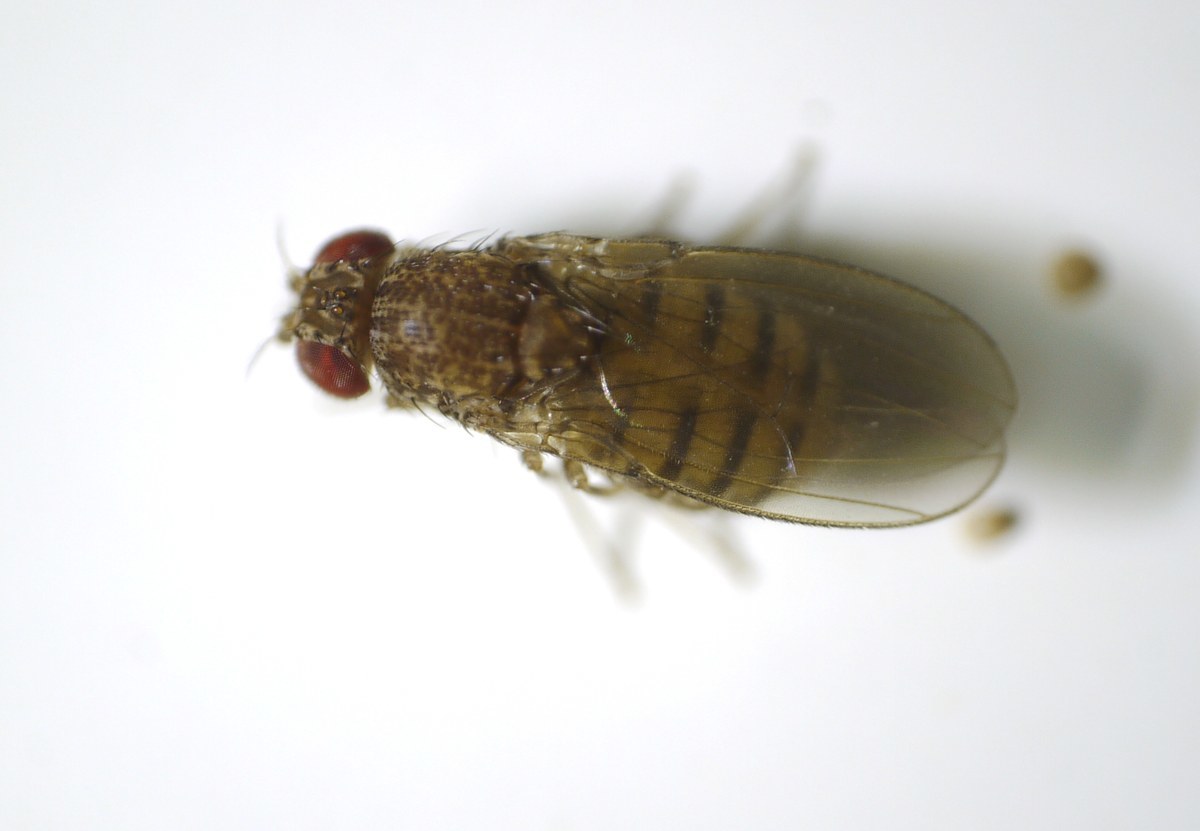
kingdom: Animalia
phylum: Arthropoda
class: Insecta
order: Diptera
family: Drosophilidae
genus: Drosophila
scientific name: Drosophila repleta
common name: Pomace fly
